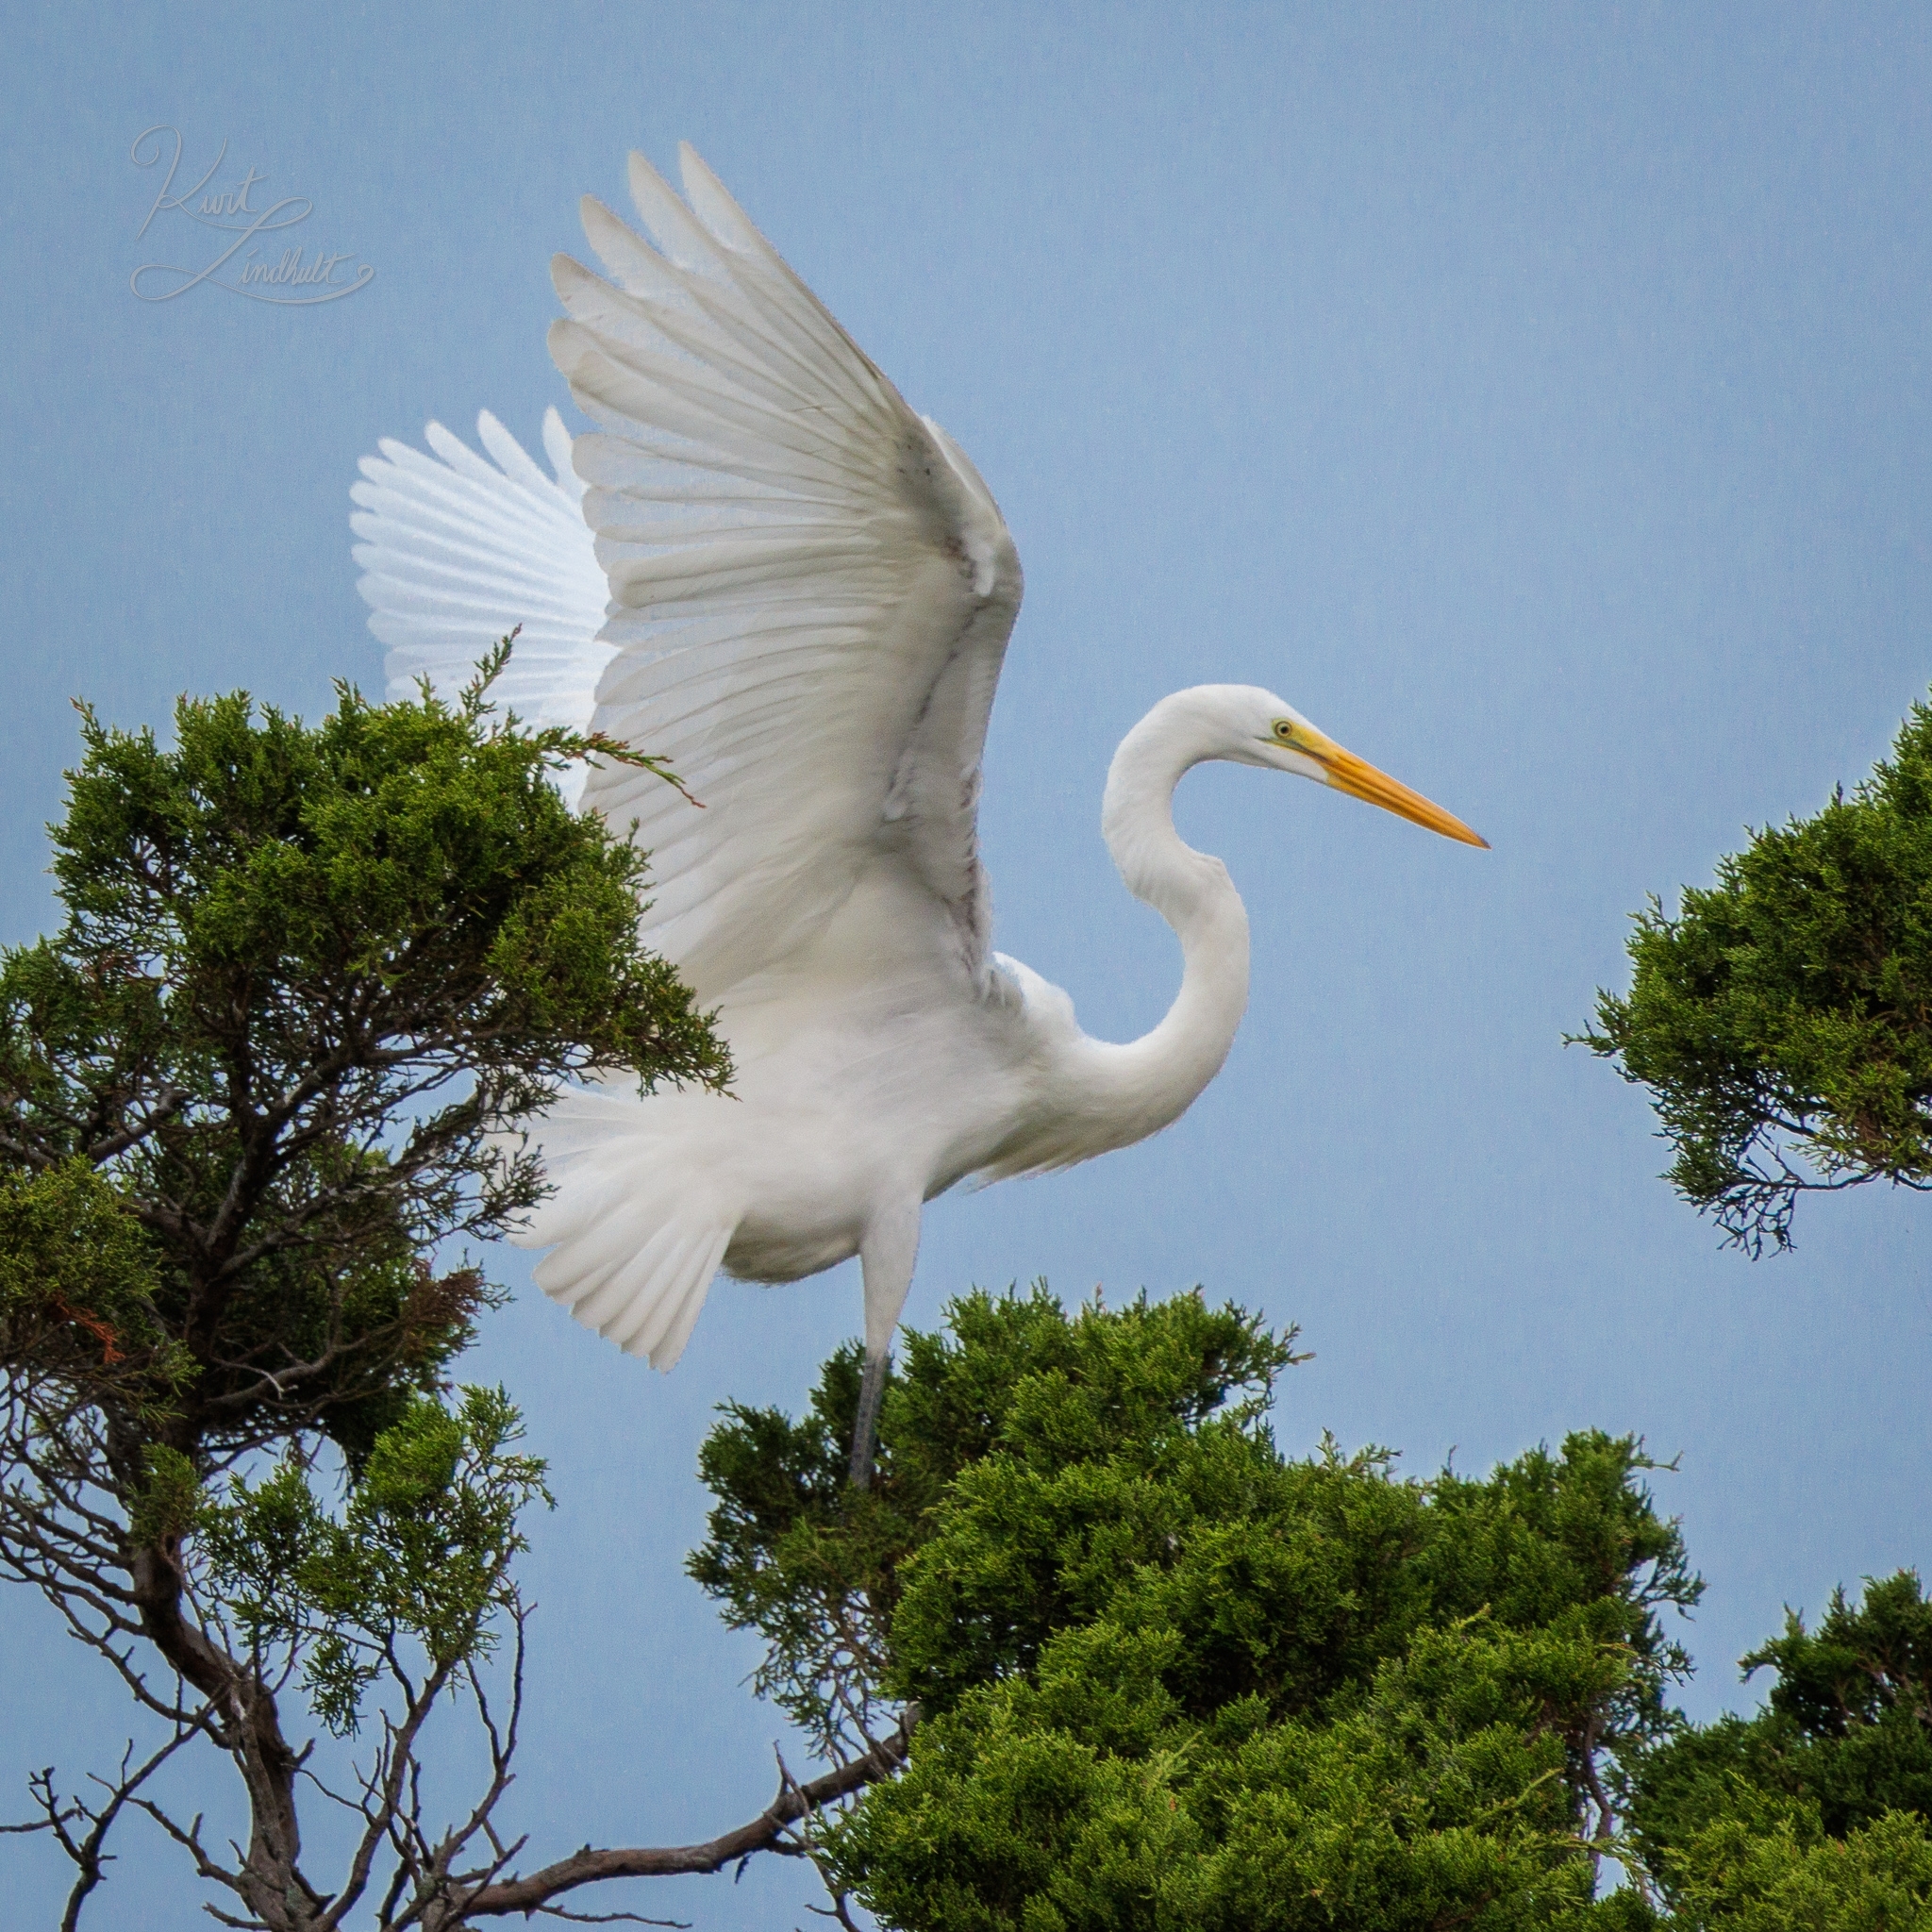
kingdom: Animalia
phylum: Chordata
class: Aves
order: Pelecaniformes
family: Ardeidae
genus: Ardea
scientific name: Ardea alba
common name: Great egret
